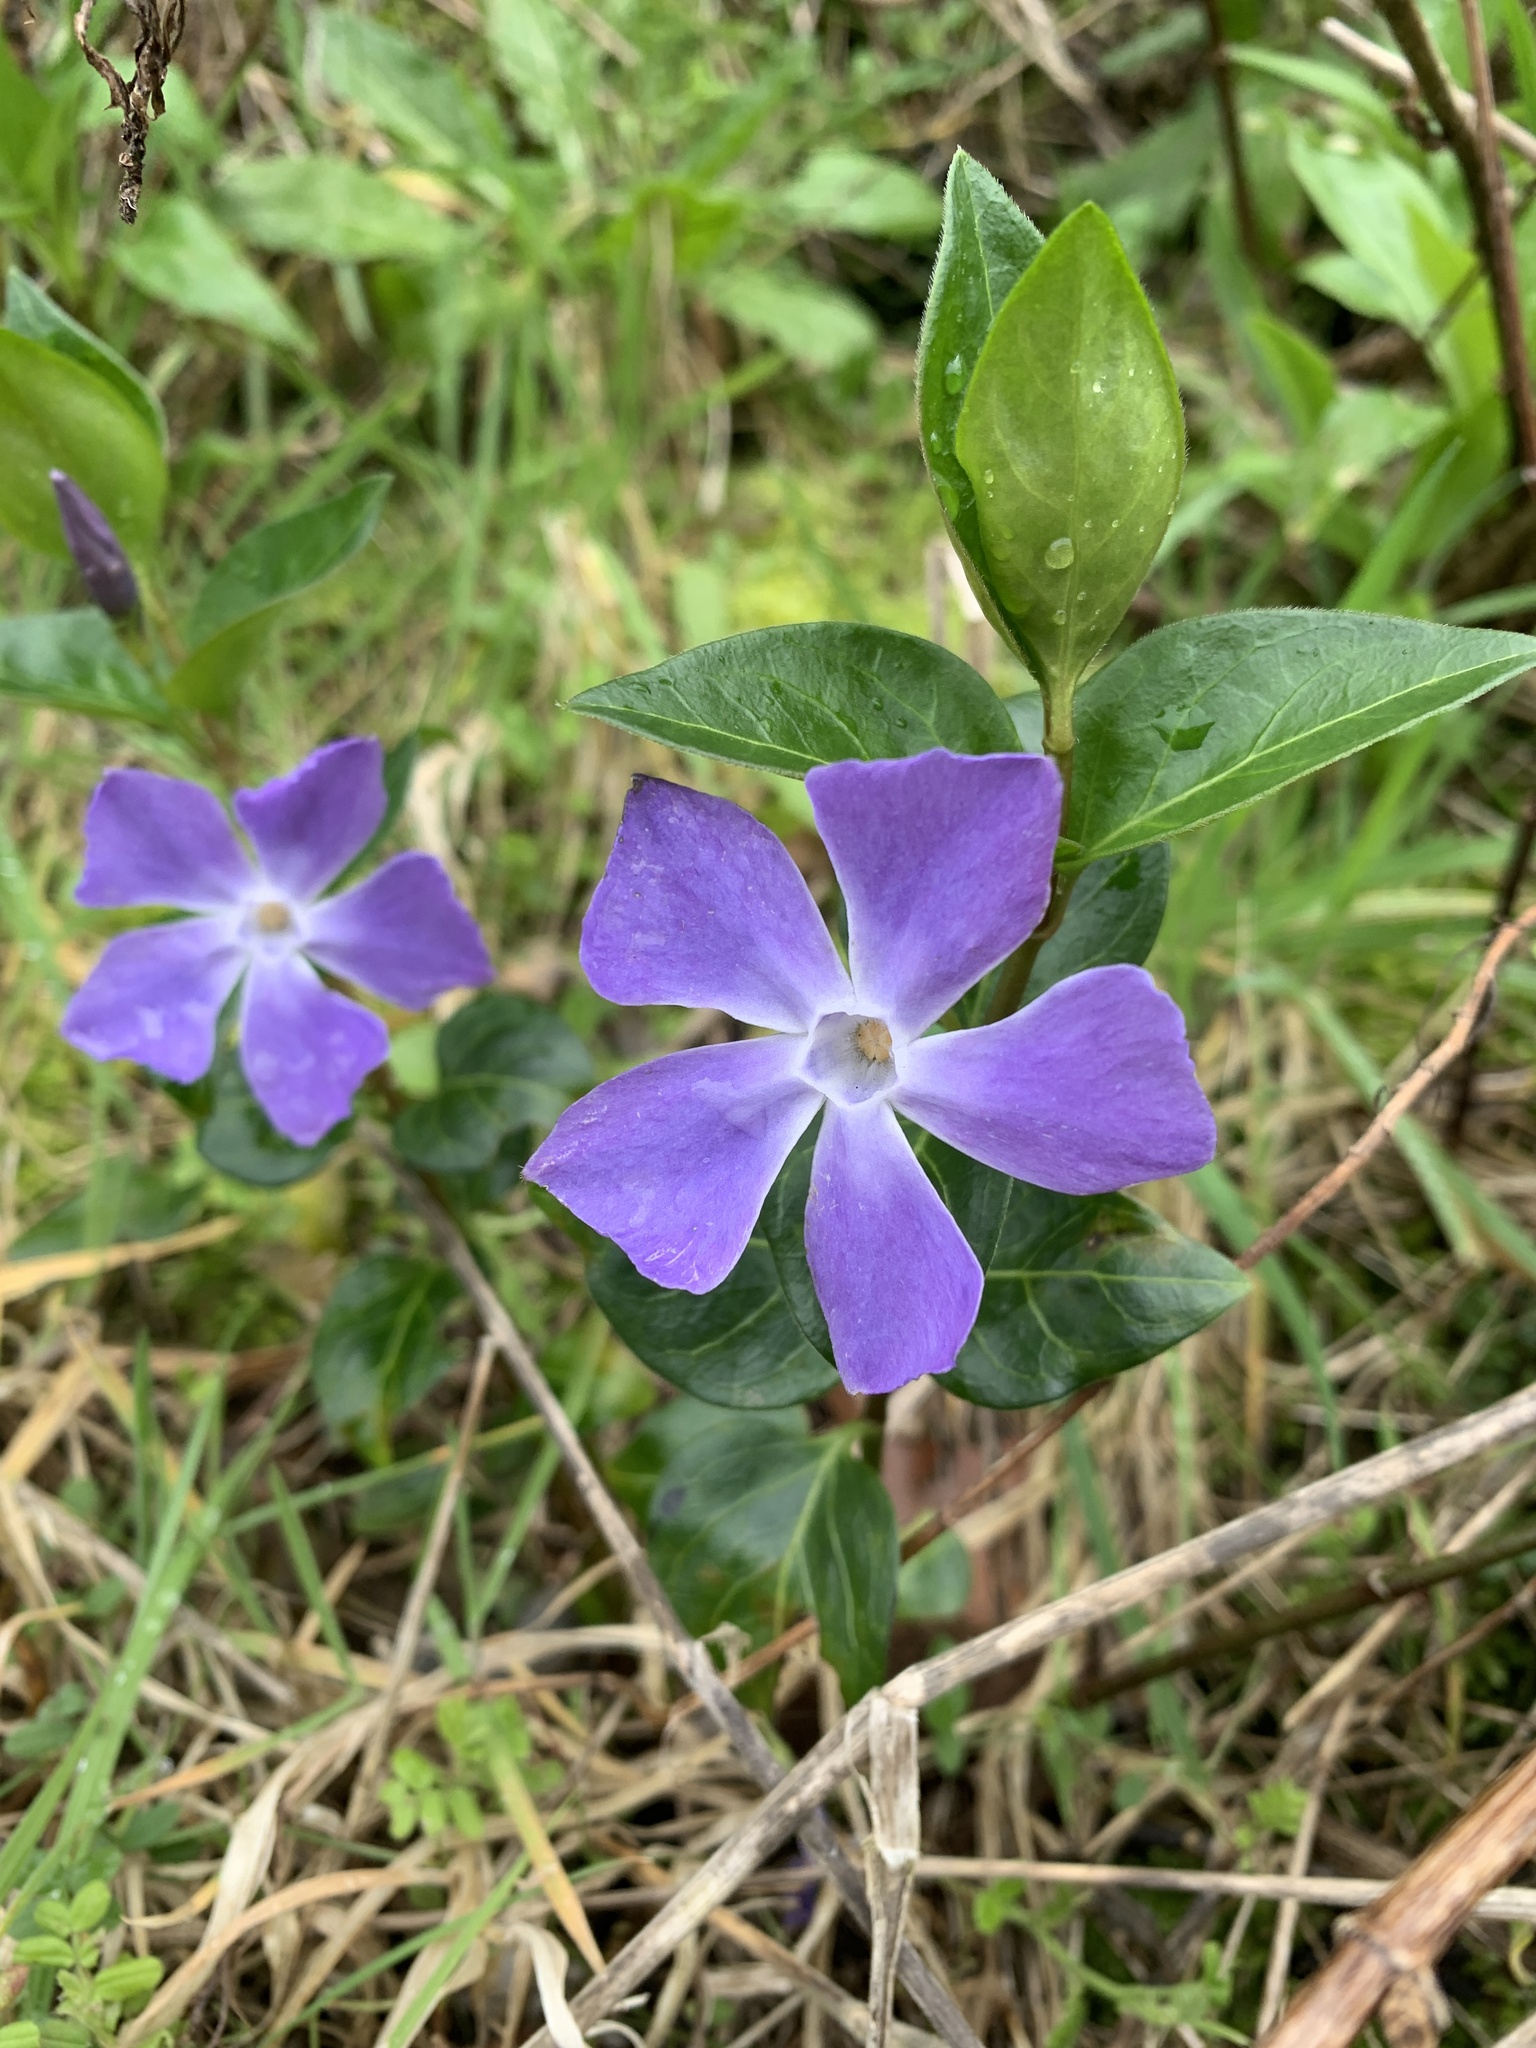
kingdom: Plantae
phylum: Tracheophyta
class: Magnoliopsida
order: Gentianales
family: Apocynaceae
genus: Vinca
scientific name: Vinca major
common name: Greater periwinkle
